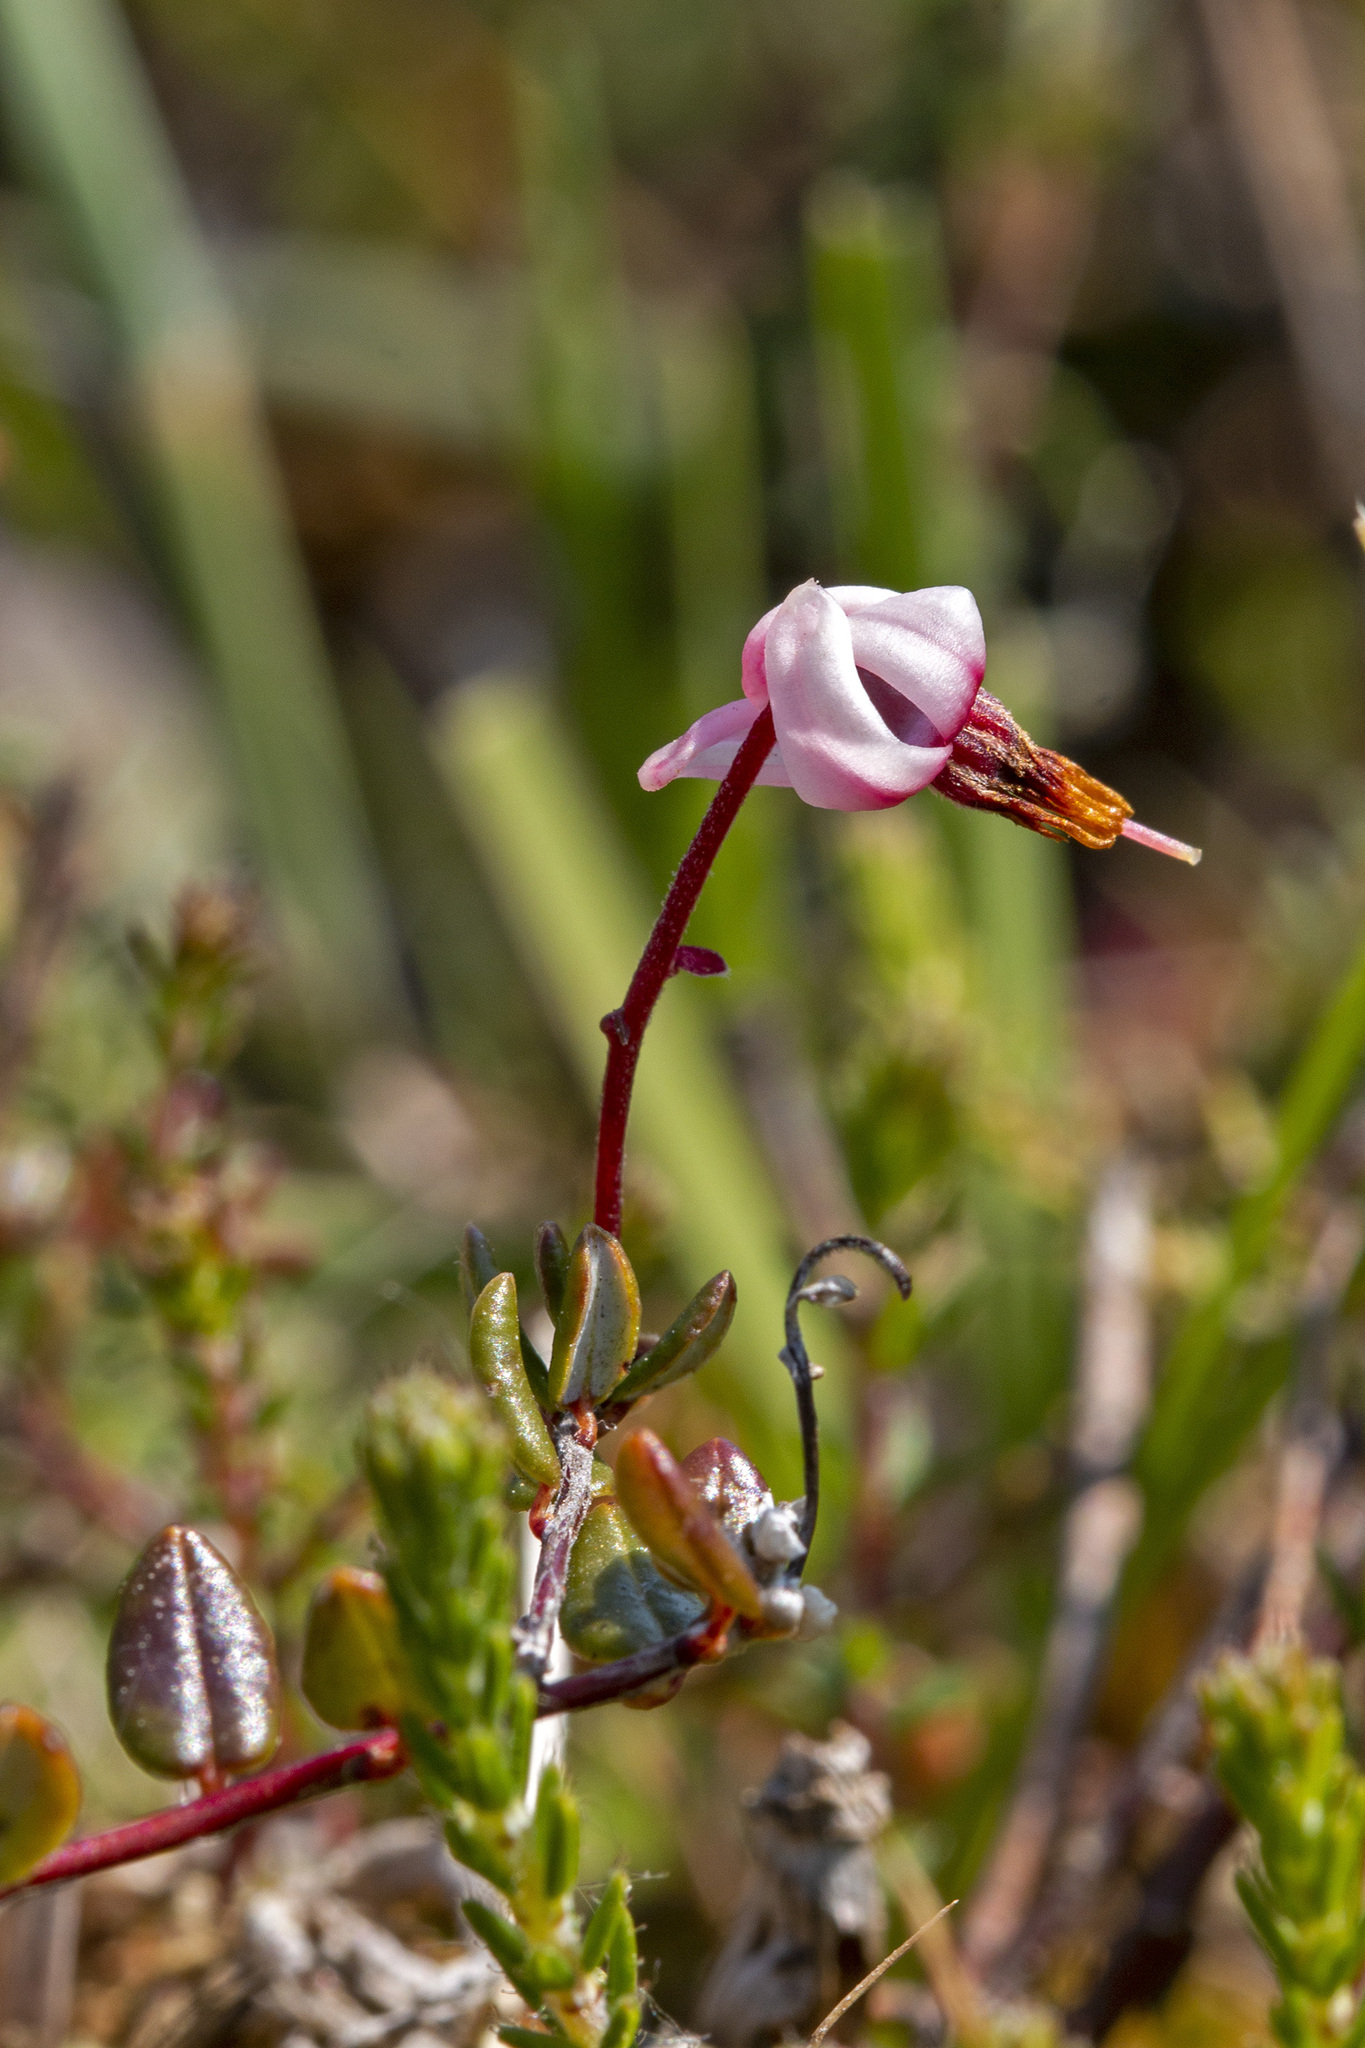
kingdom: Plantae
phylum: Tracheophyta
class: Magnoliopsida
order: Ericales
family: Ericaceae
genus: Vaccinium
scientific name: Vaccinium oxycoccos
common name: Cranberry
